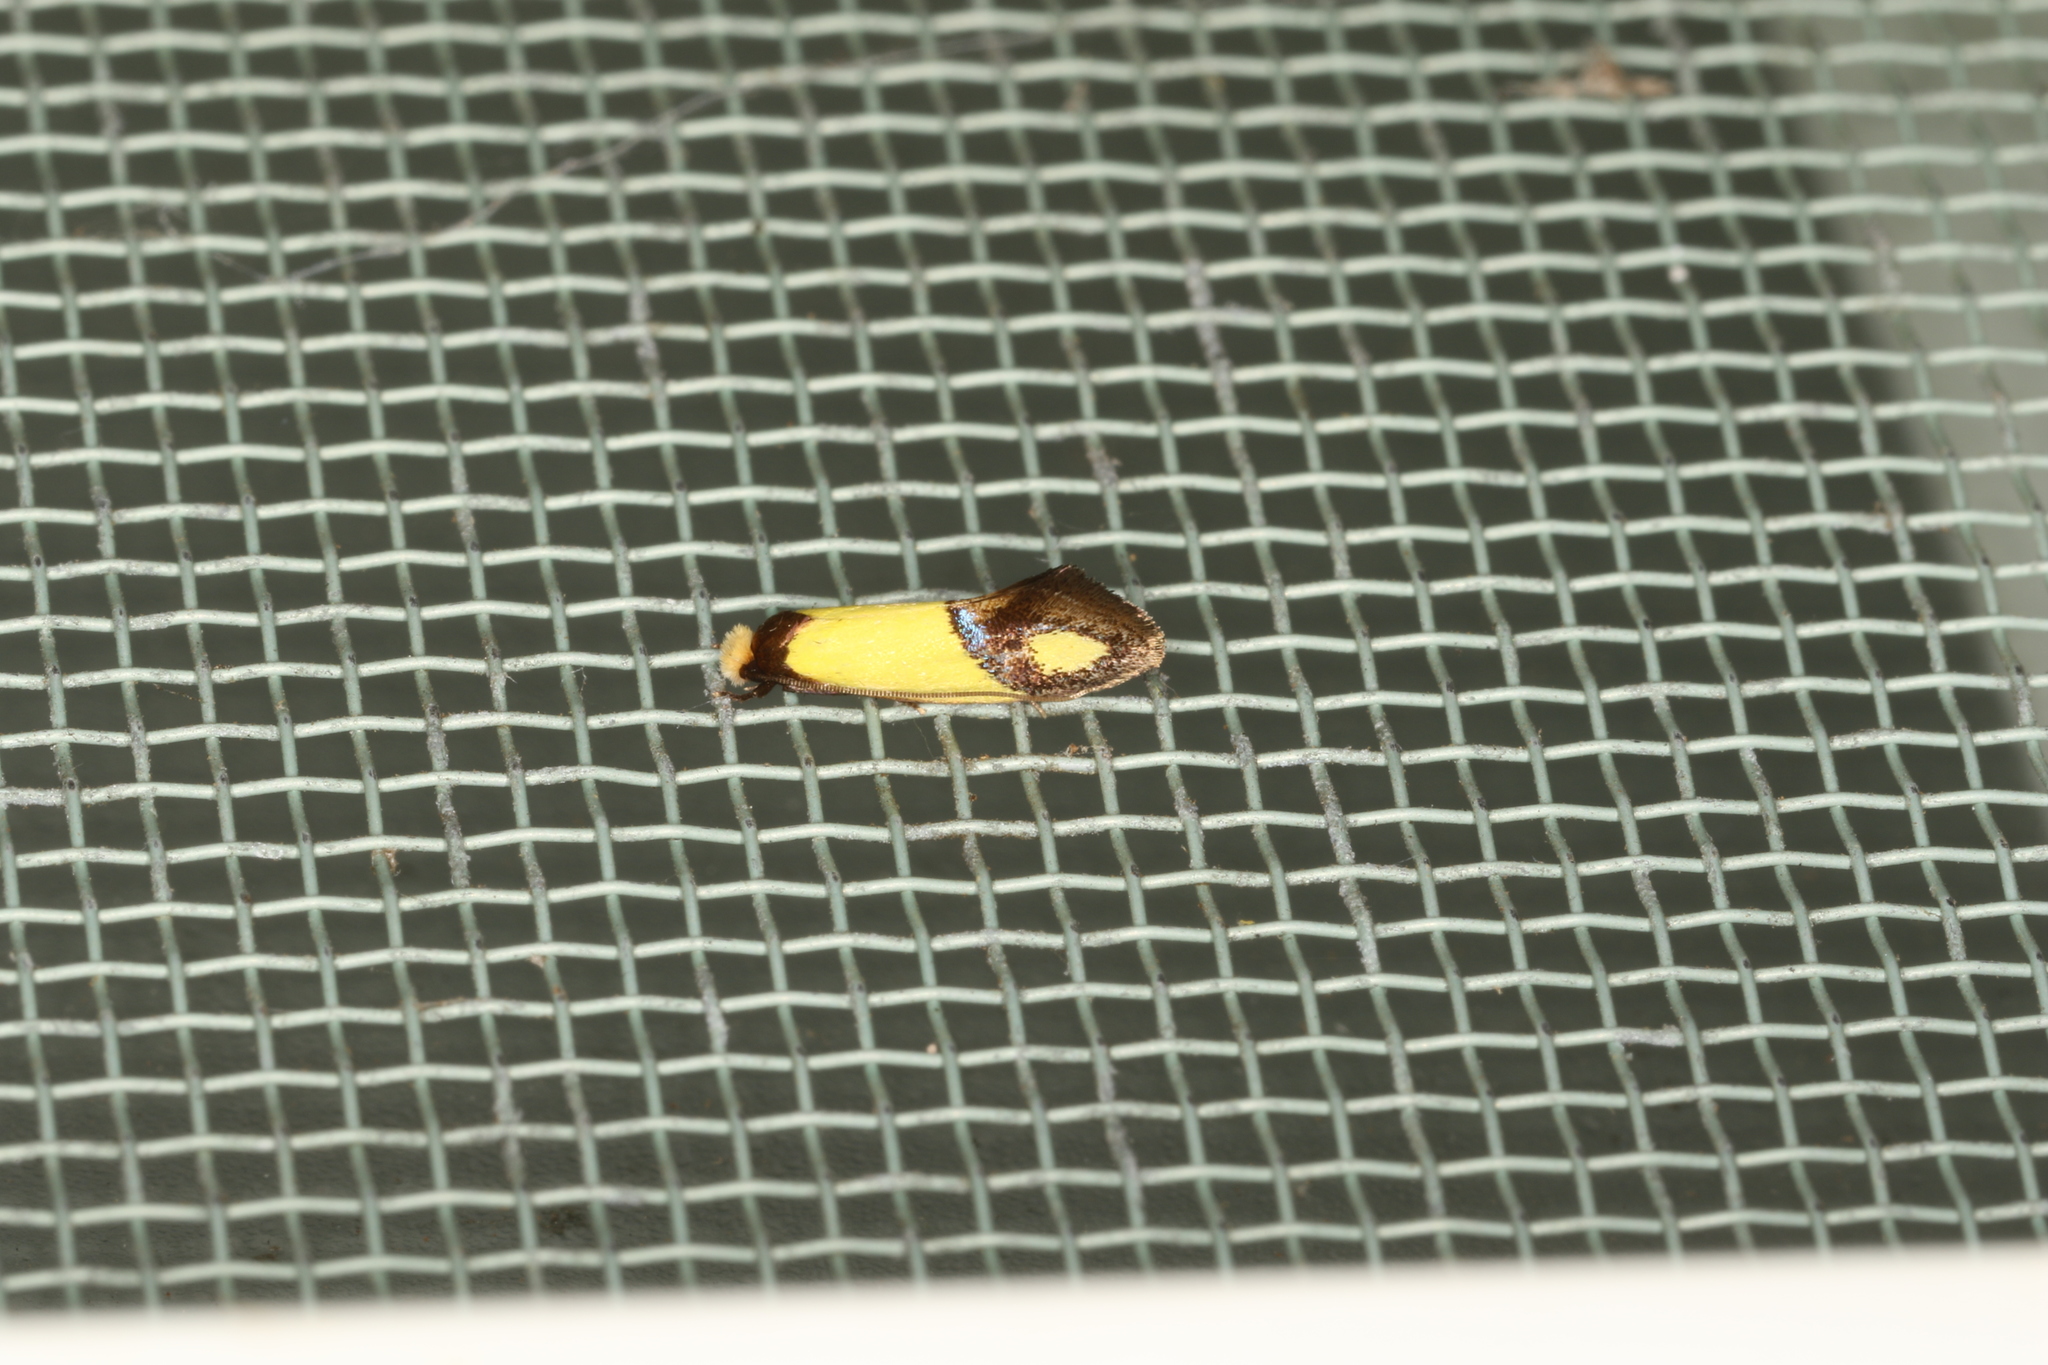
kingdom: Animalia
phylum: Arthropoda
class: Insecta
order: Lepidoptera
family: Tineidae
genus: Edosa
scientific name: Edosa fraudulens
